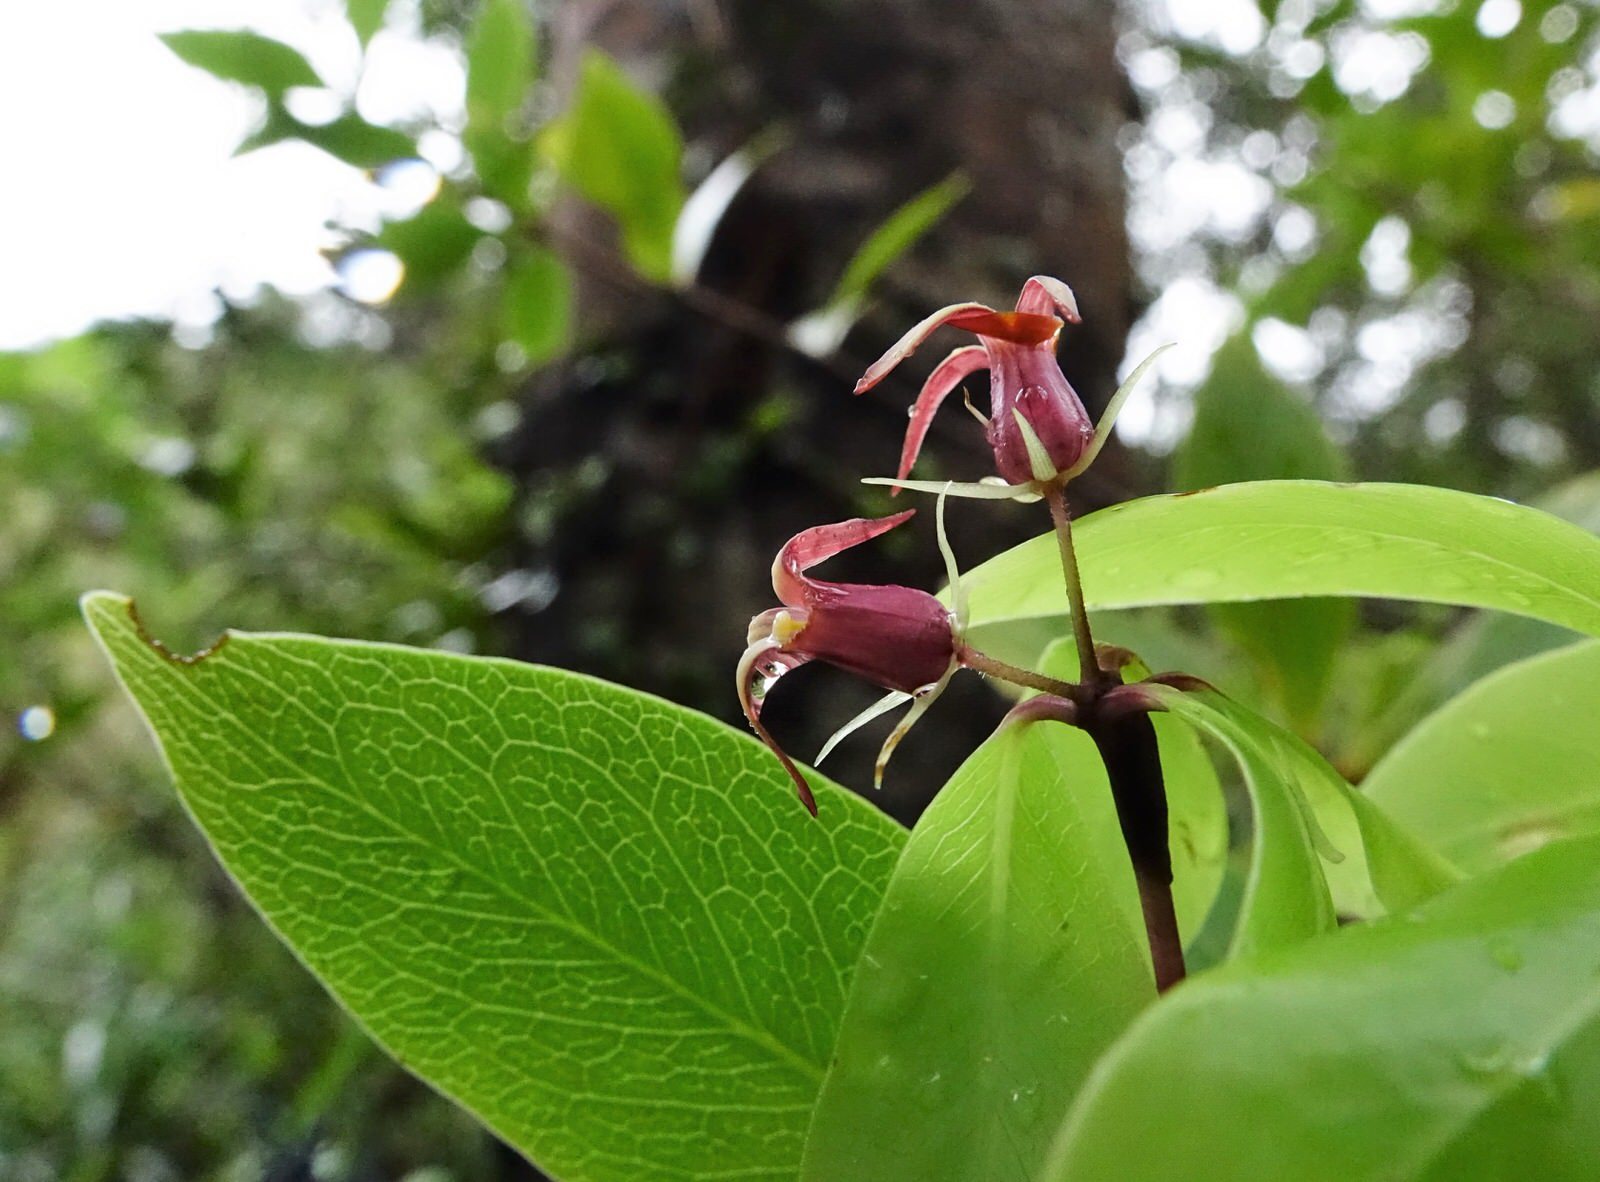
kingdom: Plantae
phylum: Tracheophyta
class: Magnoliopsida
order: Apiales
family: Pittosporaceae
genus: Pittosporum
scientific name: Pittosporum cornifolium
